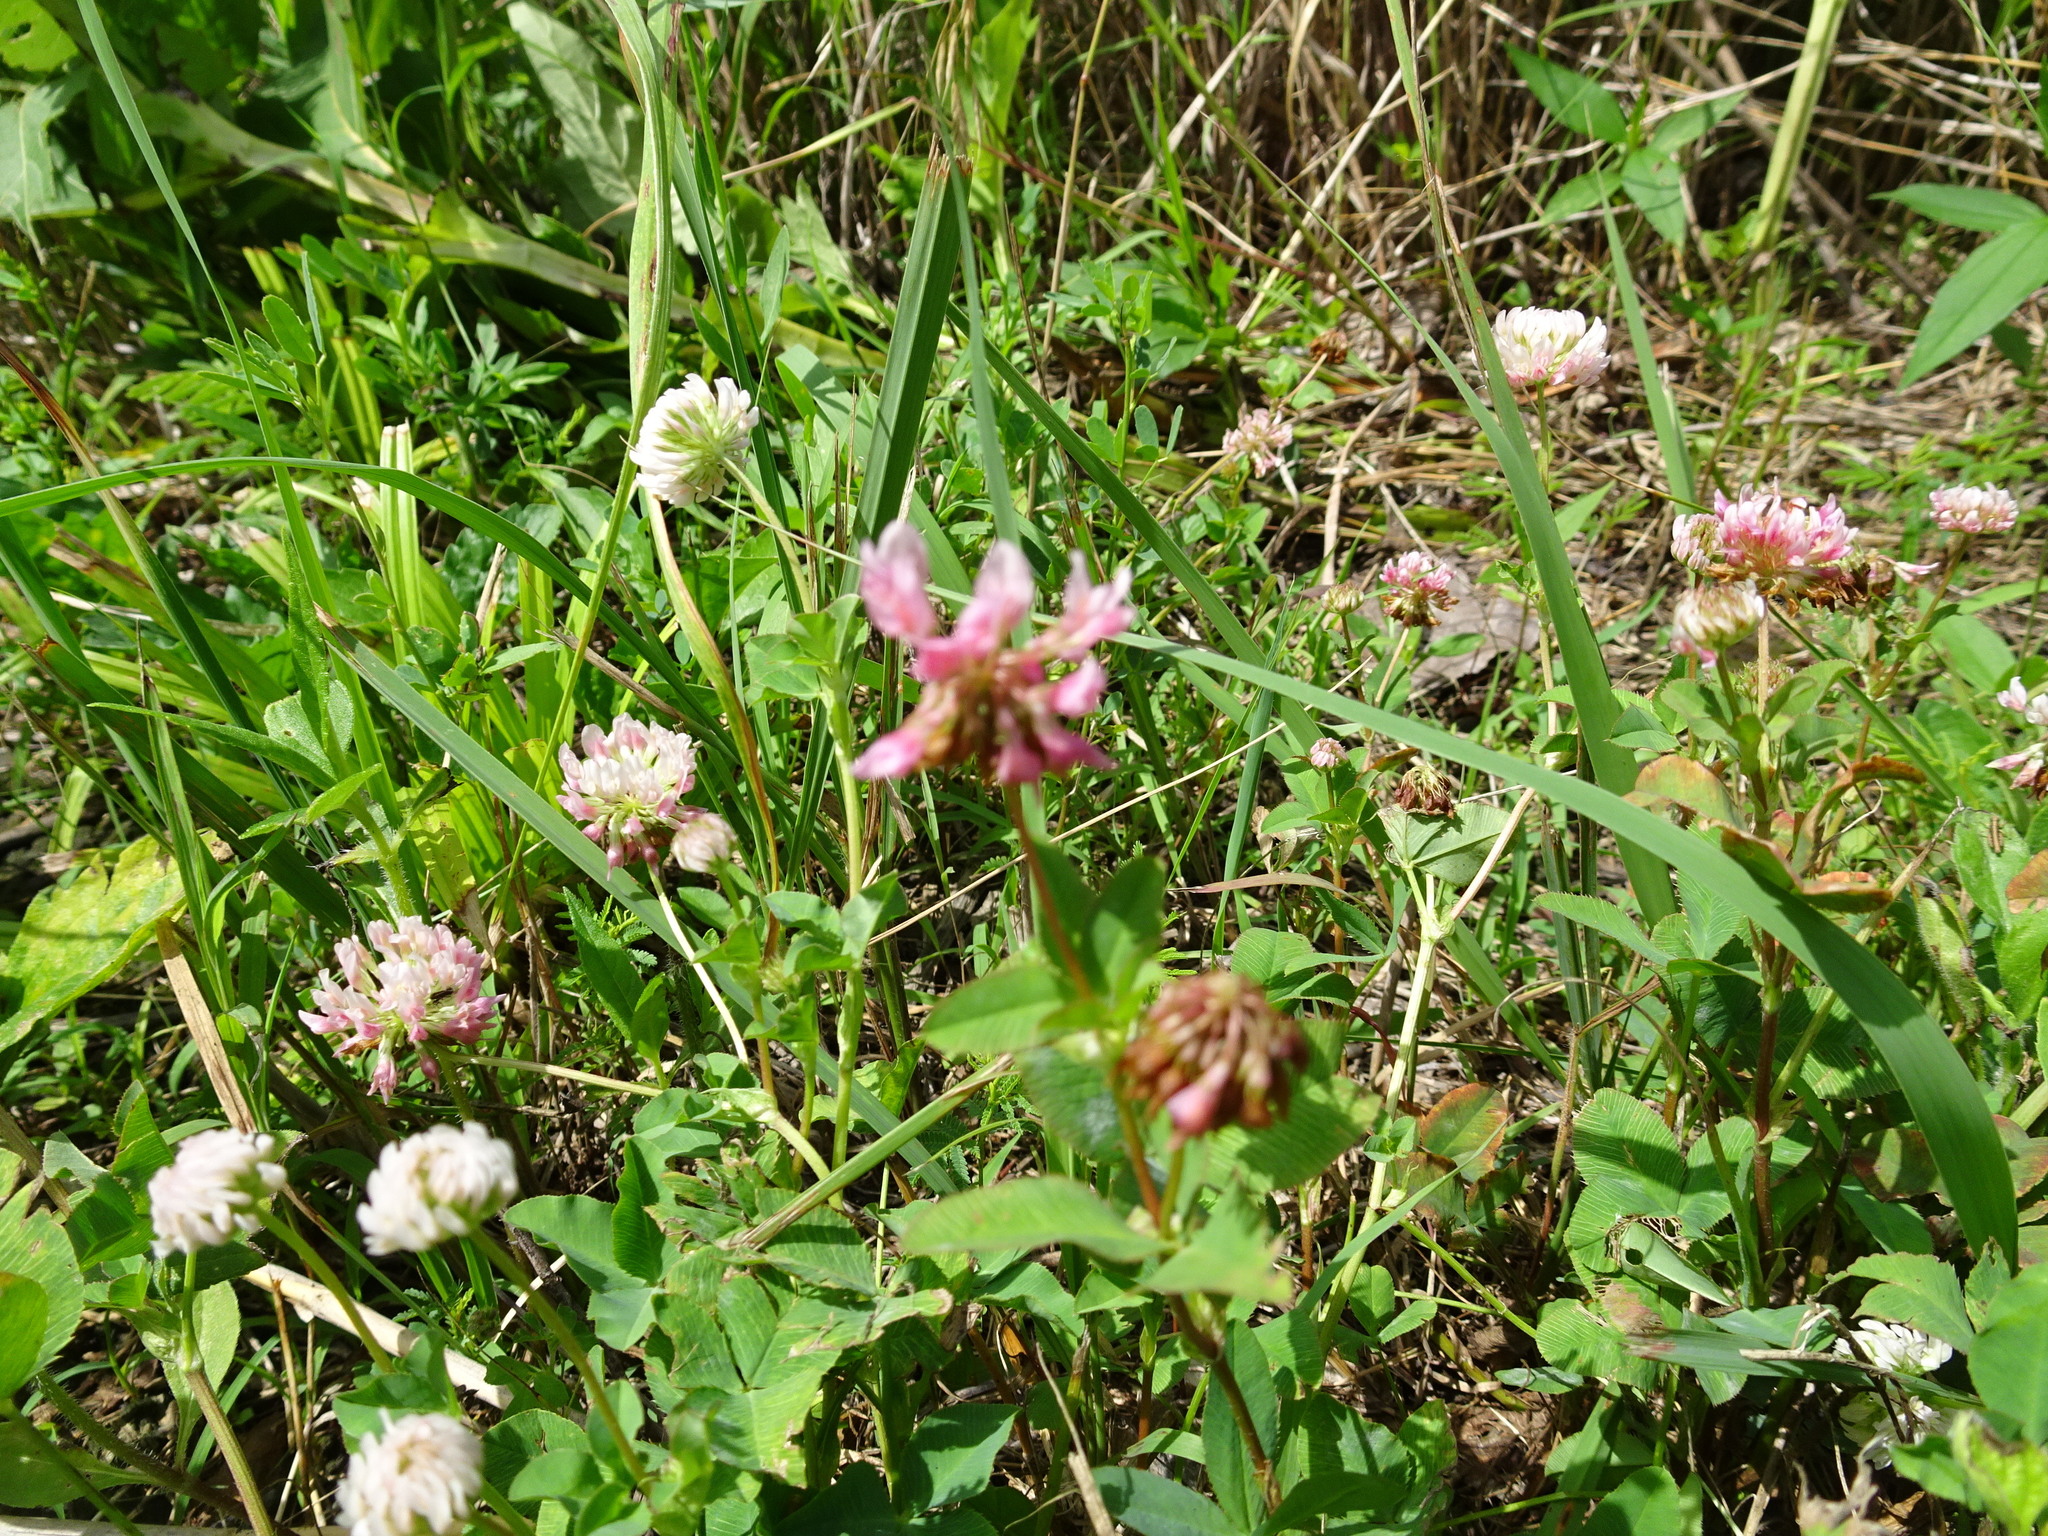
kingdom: Plantae
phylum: Tracheophyta
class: Magnoliopsida
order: Fabales
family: Fabaceae
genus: Trifolium
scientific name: Trifolium hybridum
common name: Alsike clover
